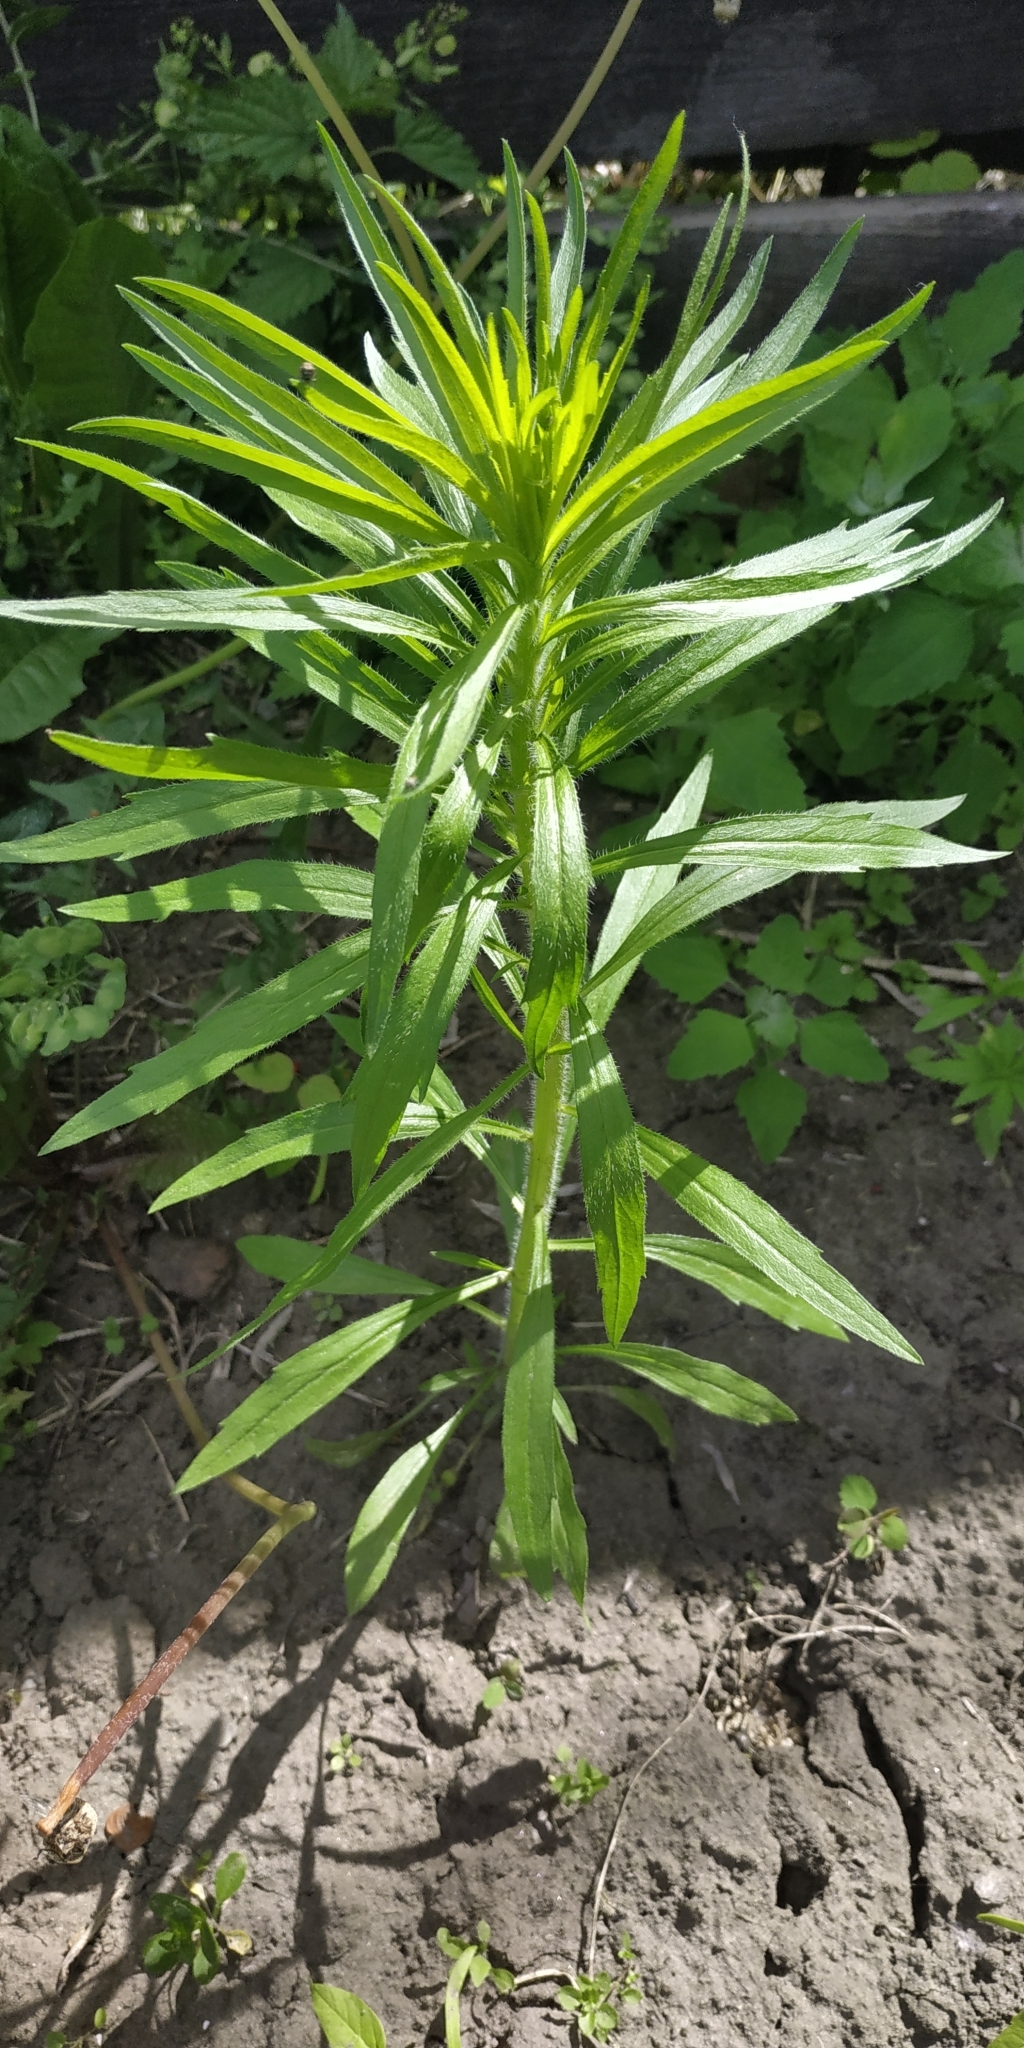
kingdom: Plantae
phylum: Tracheophyta
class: Magnoliopsida
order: Asterales
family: Asteraceae
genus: Erigeron
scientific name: Erigeron canadensis
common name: Canadian fleabane
